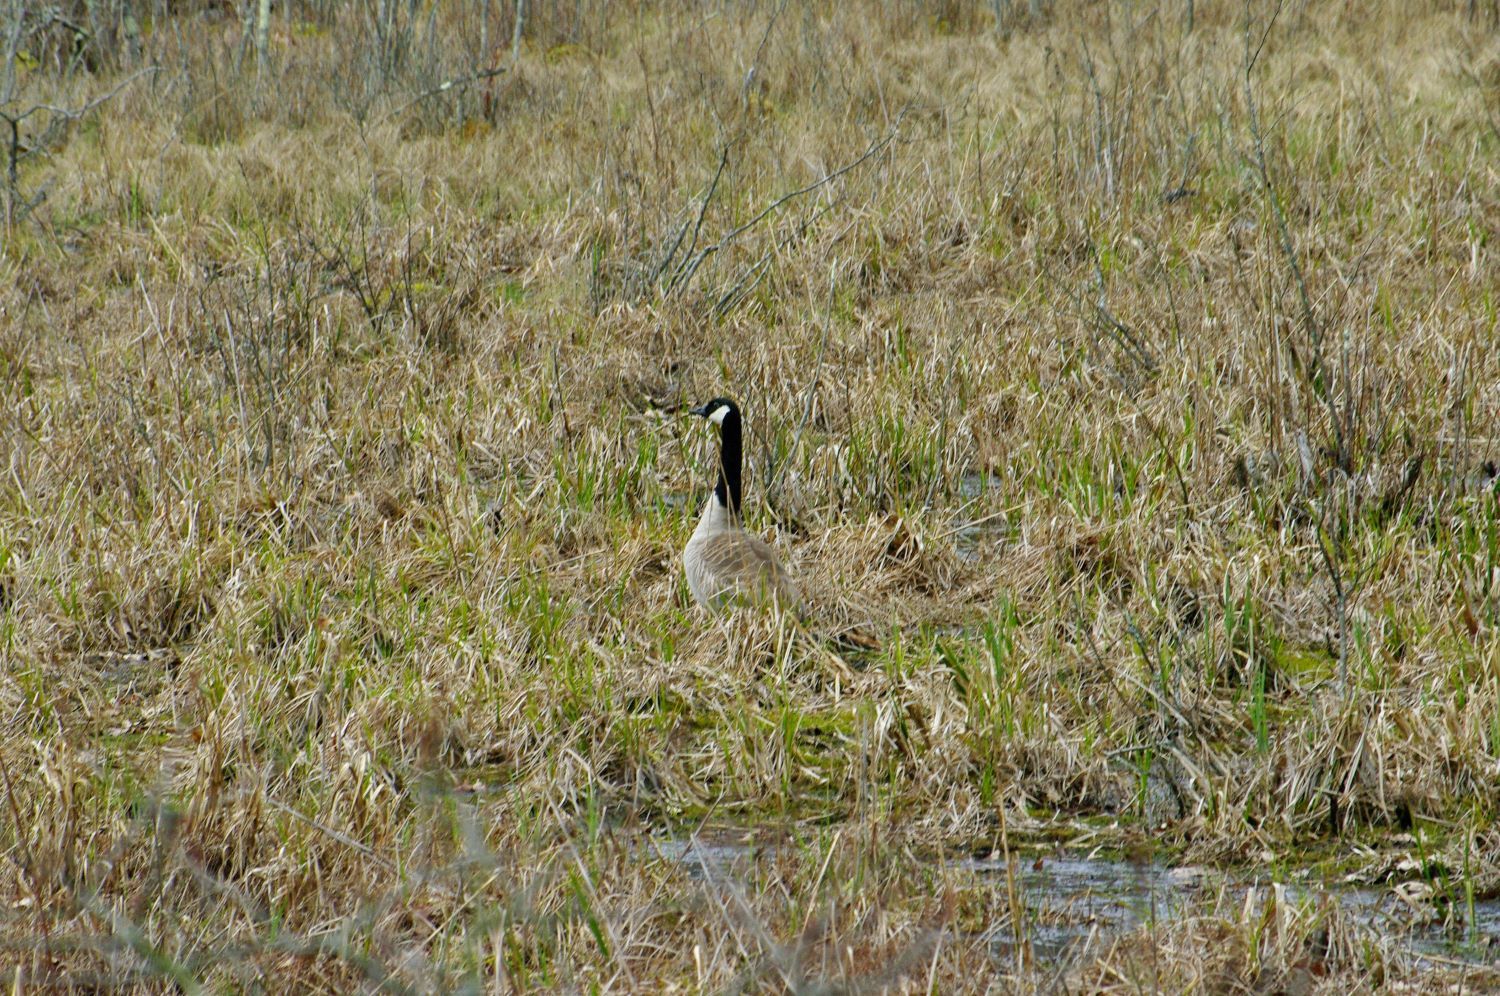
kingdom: Animalia
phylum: Chordata
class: Aves
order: Anseriformes
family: Anatidae
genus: Branta
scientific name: Branta canadensis
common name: Canada goose
